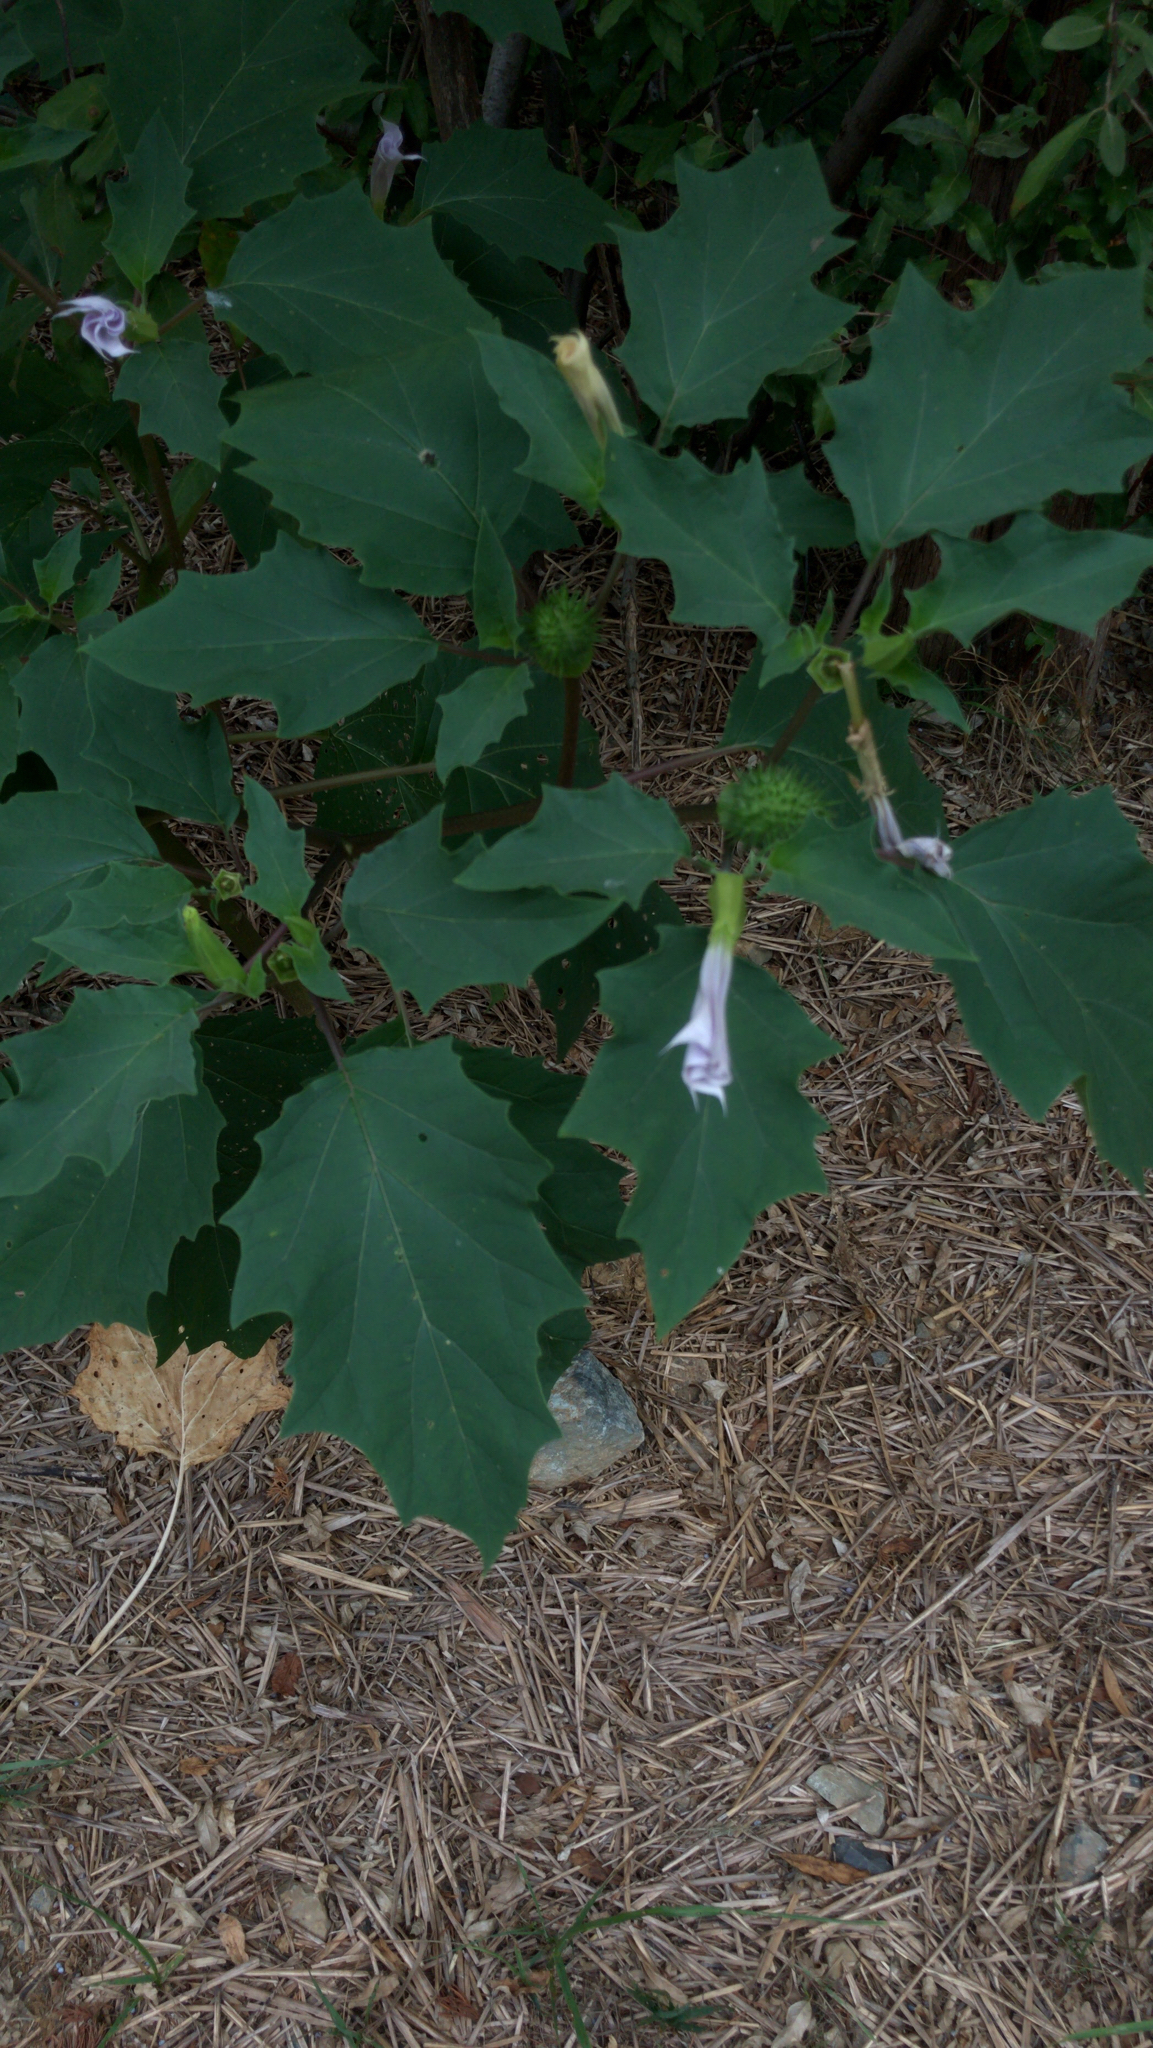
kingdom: Plantae
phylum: Tracheophyta
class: Magnoliopsida
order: Solanales
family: Solanaceae
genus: Datura
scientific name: Datura stramonium
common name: Thorn-apple
